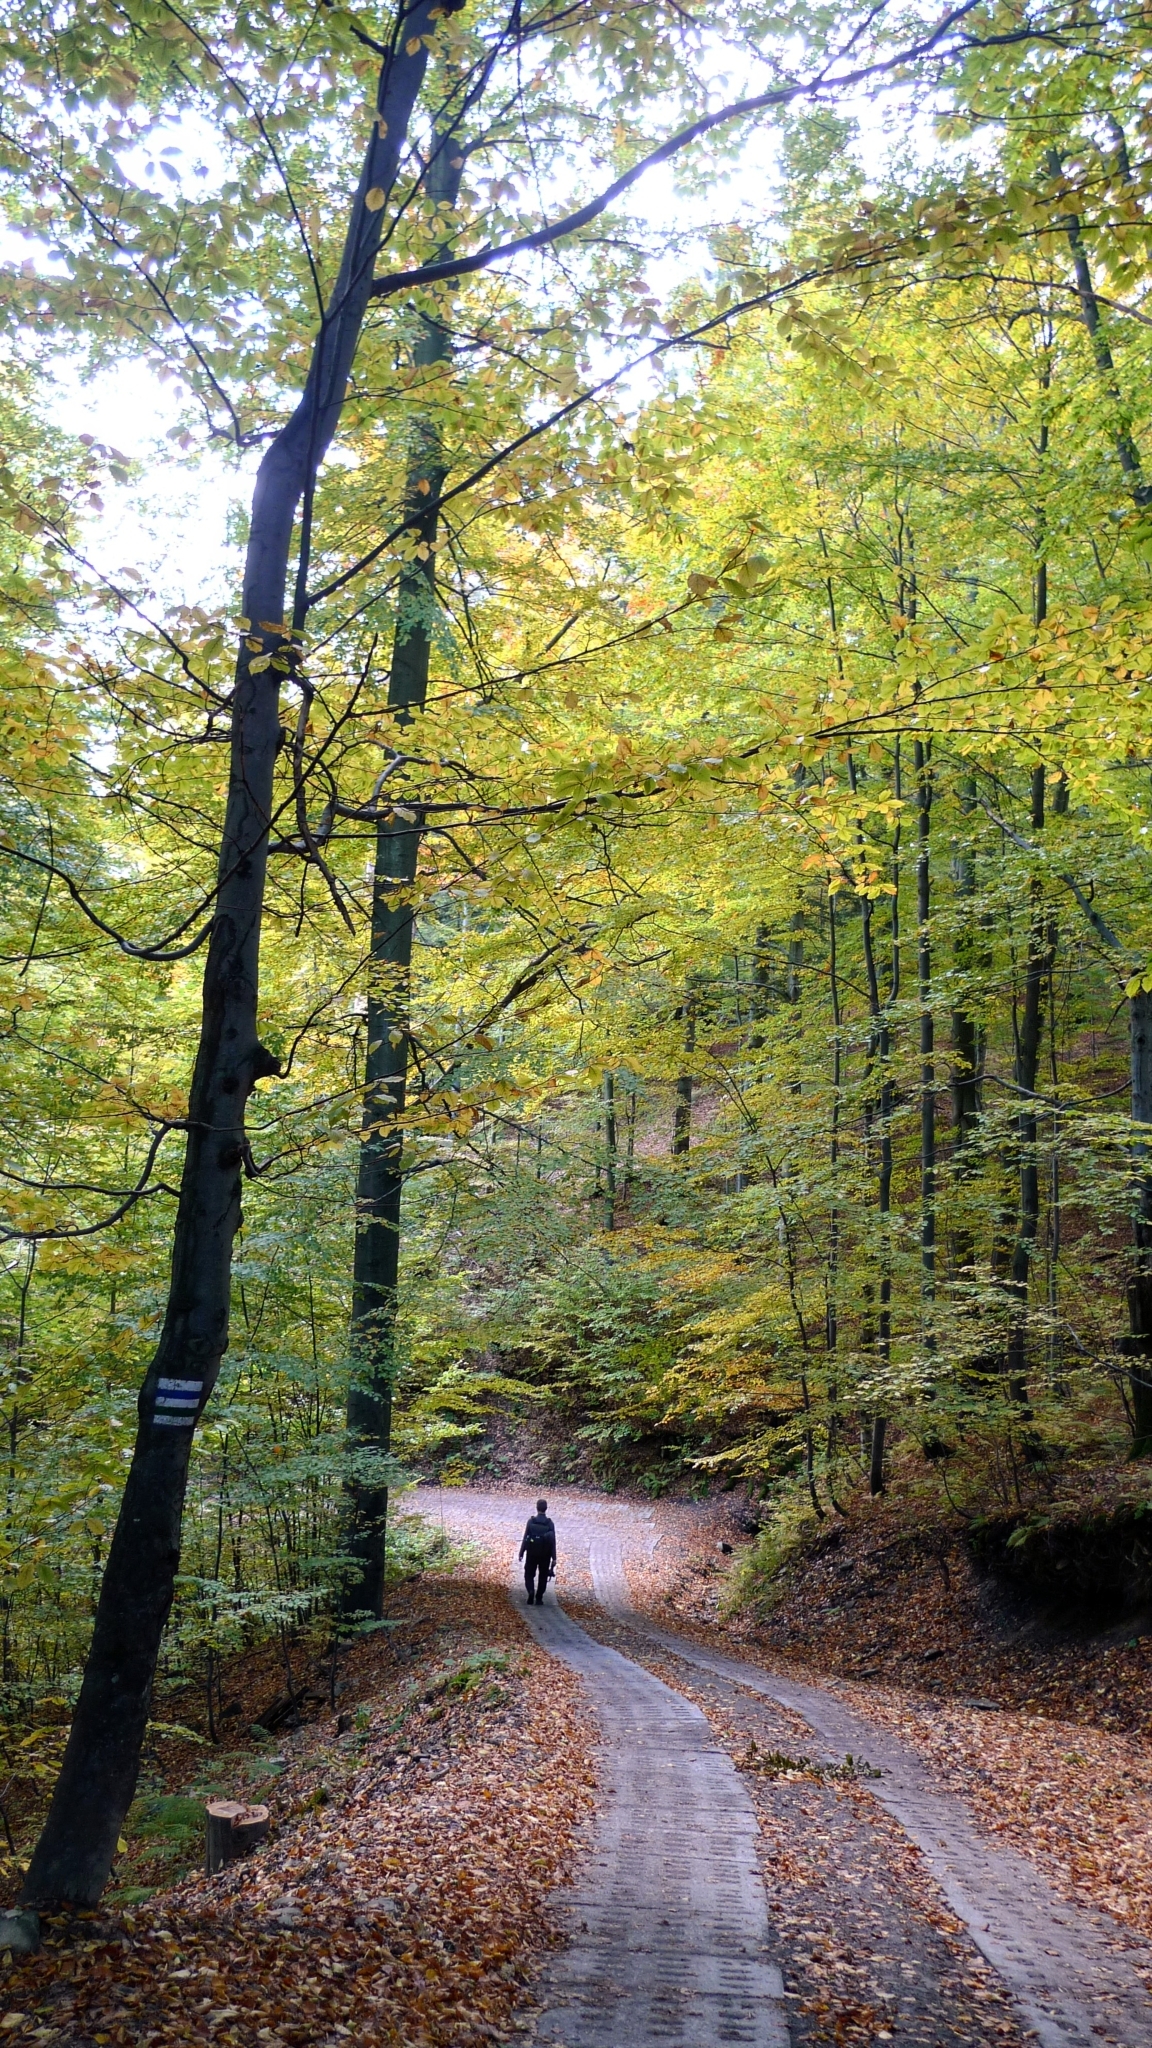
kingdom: Plantae
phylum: Bryophyta
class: Bryopsida
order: Hypnales
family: Hypnaceae
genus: Hypnum
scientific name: Hypnum cupressiforme
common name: Cypress-leaved plait-moss
